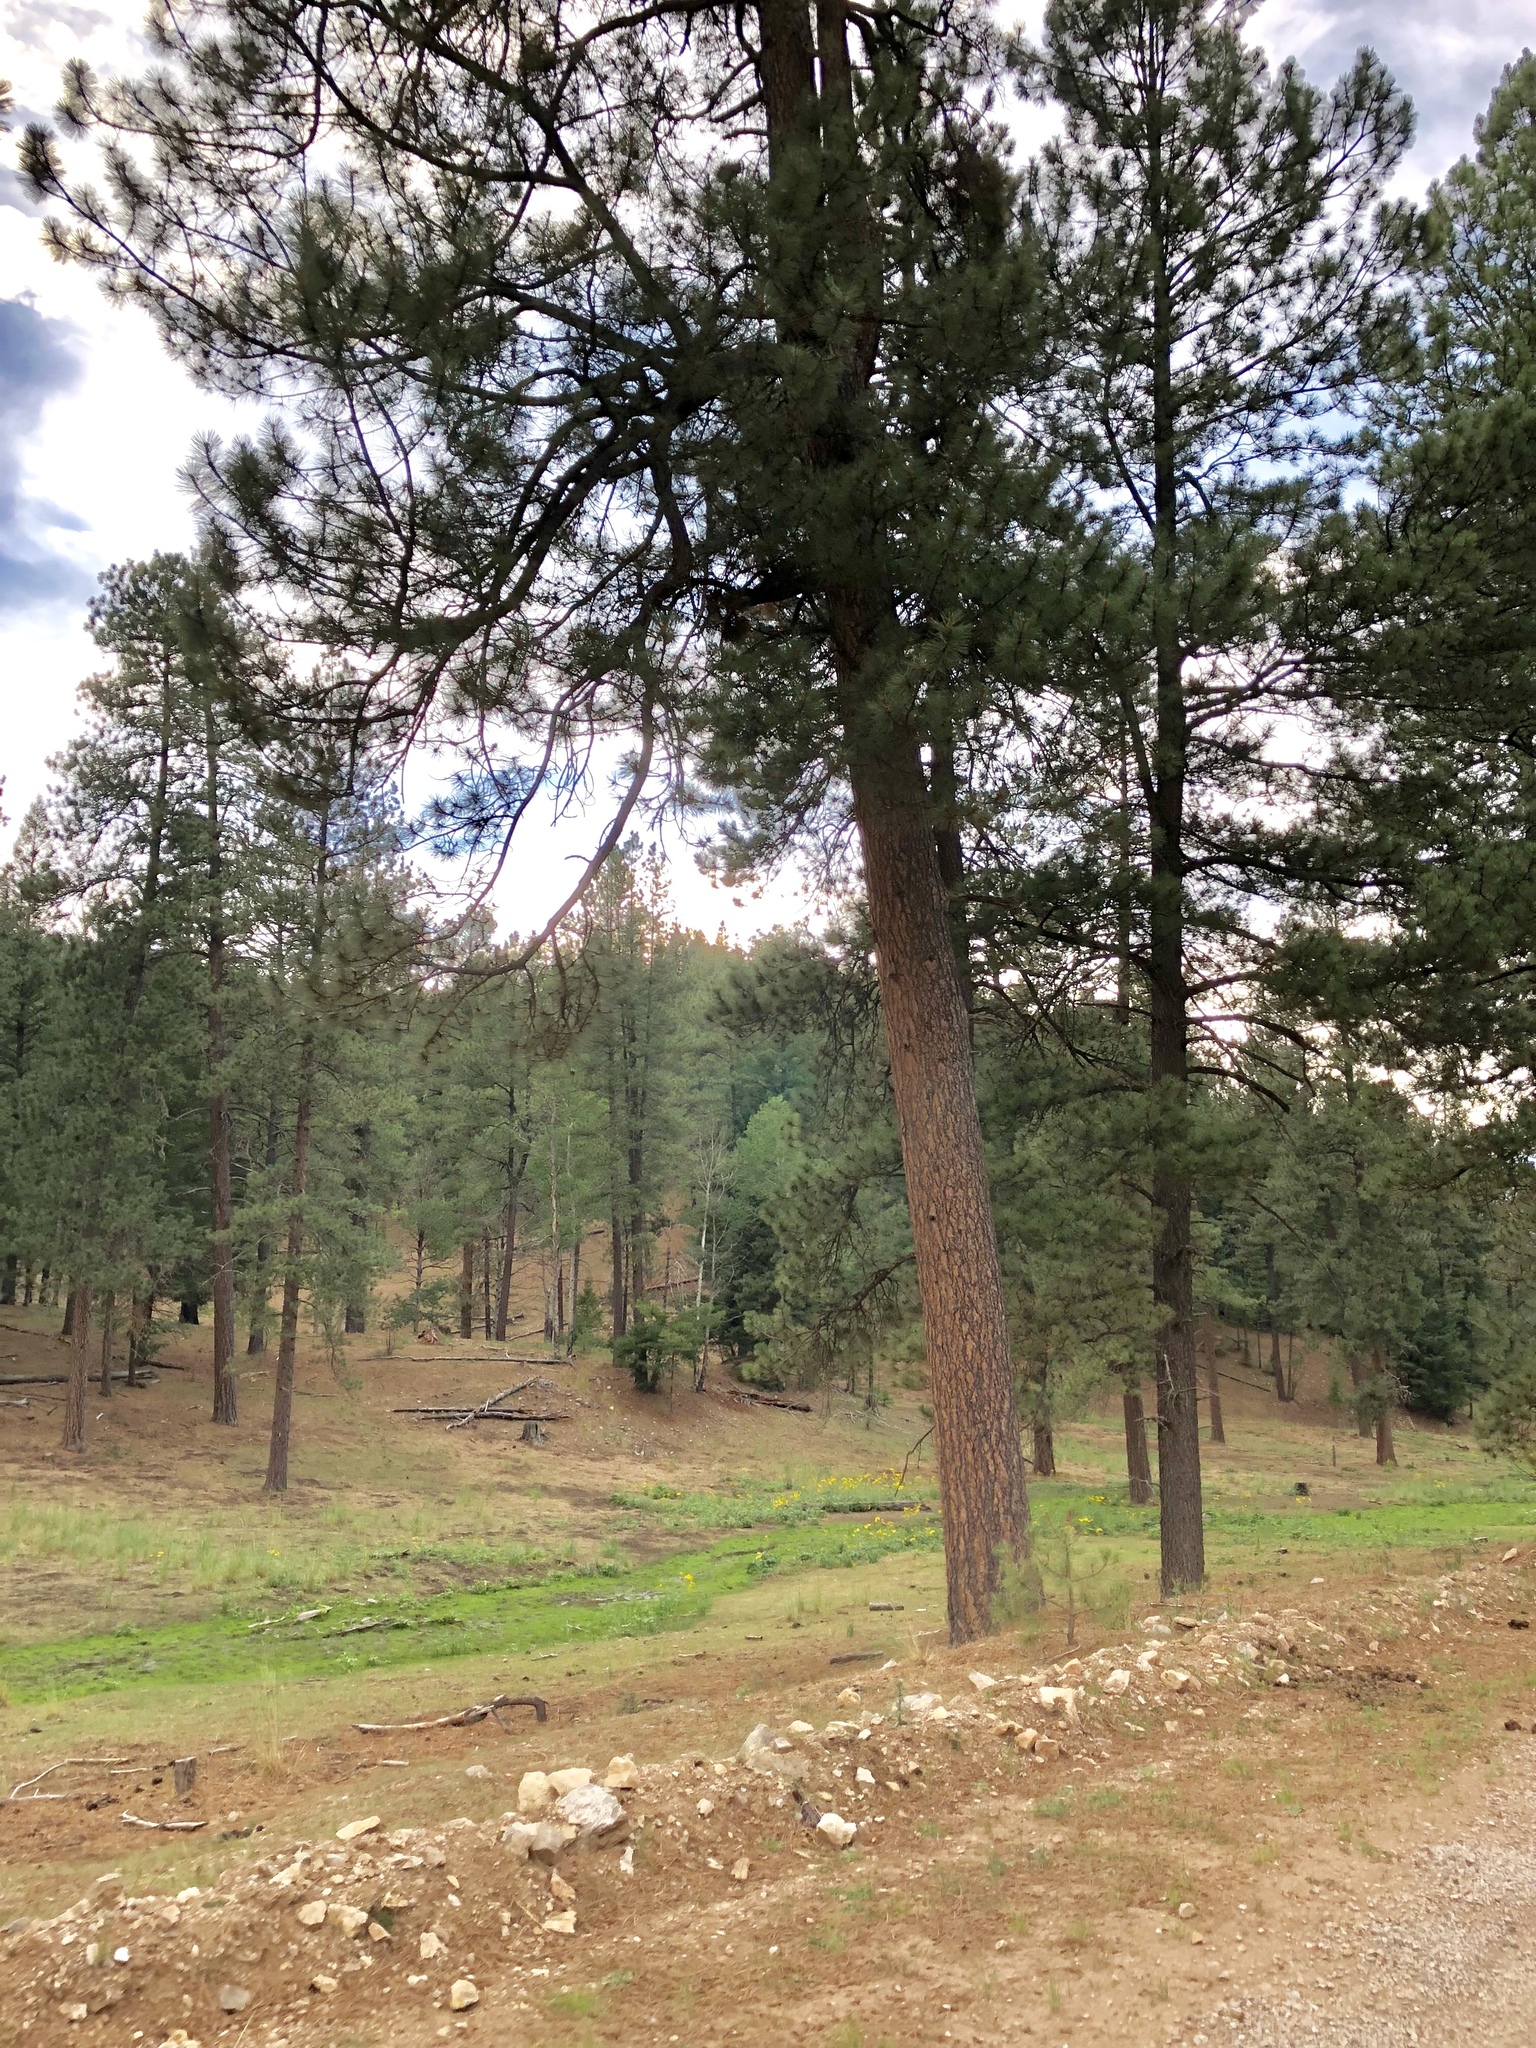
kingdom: Plantae
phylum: Tracheophyta
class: Pinopsida
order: Pinales
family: Pinaceae
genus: Pinus
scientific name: Pinus ponderosa
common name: Western yellow-pine
